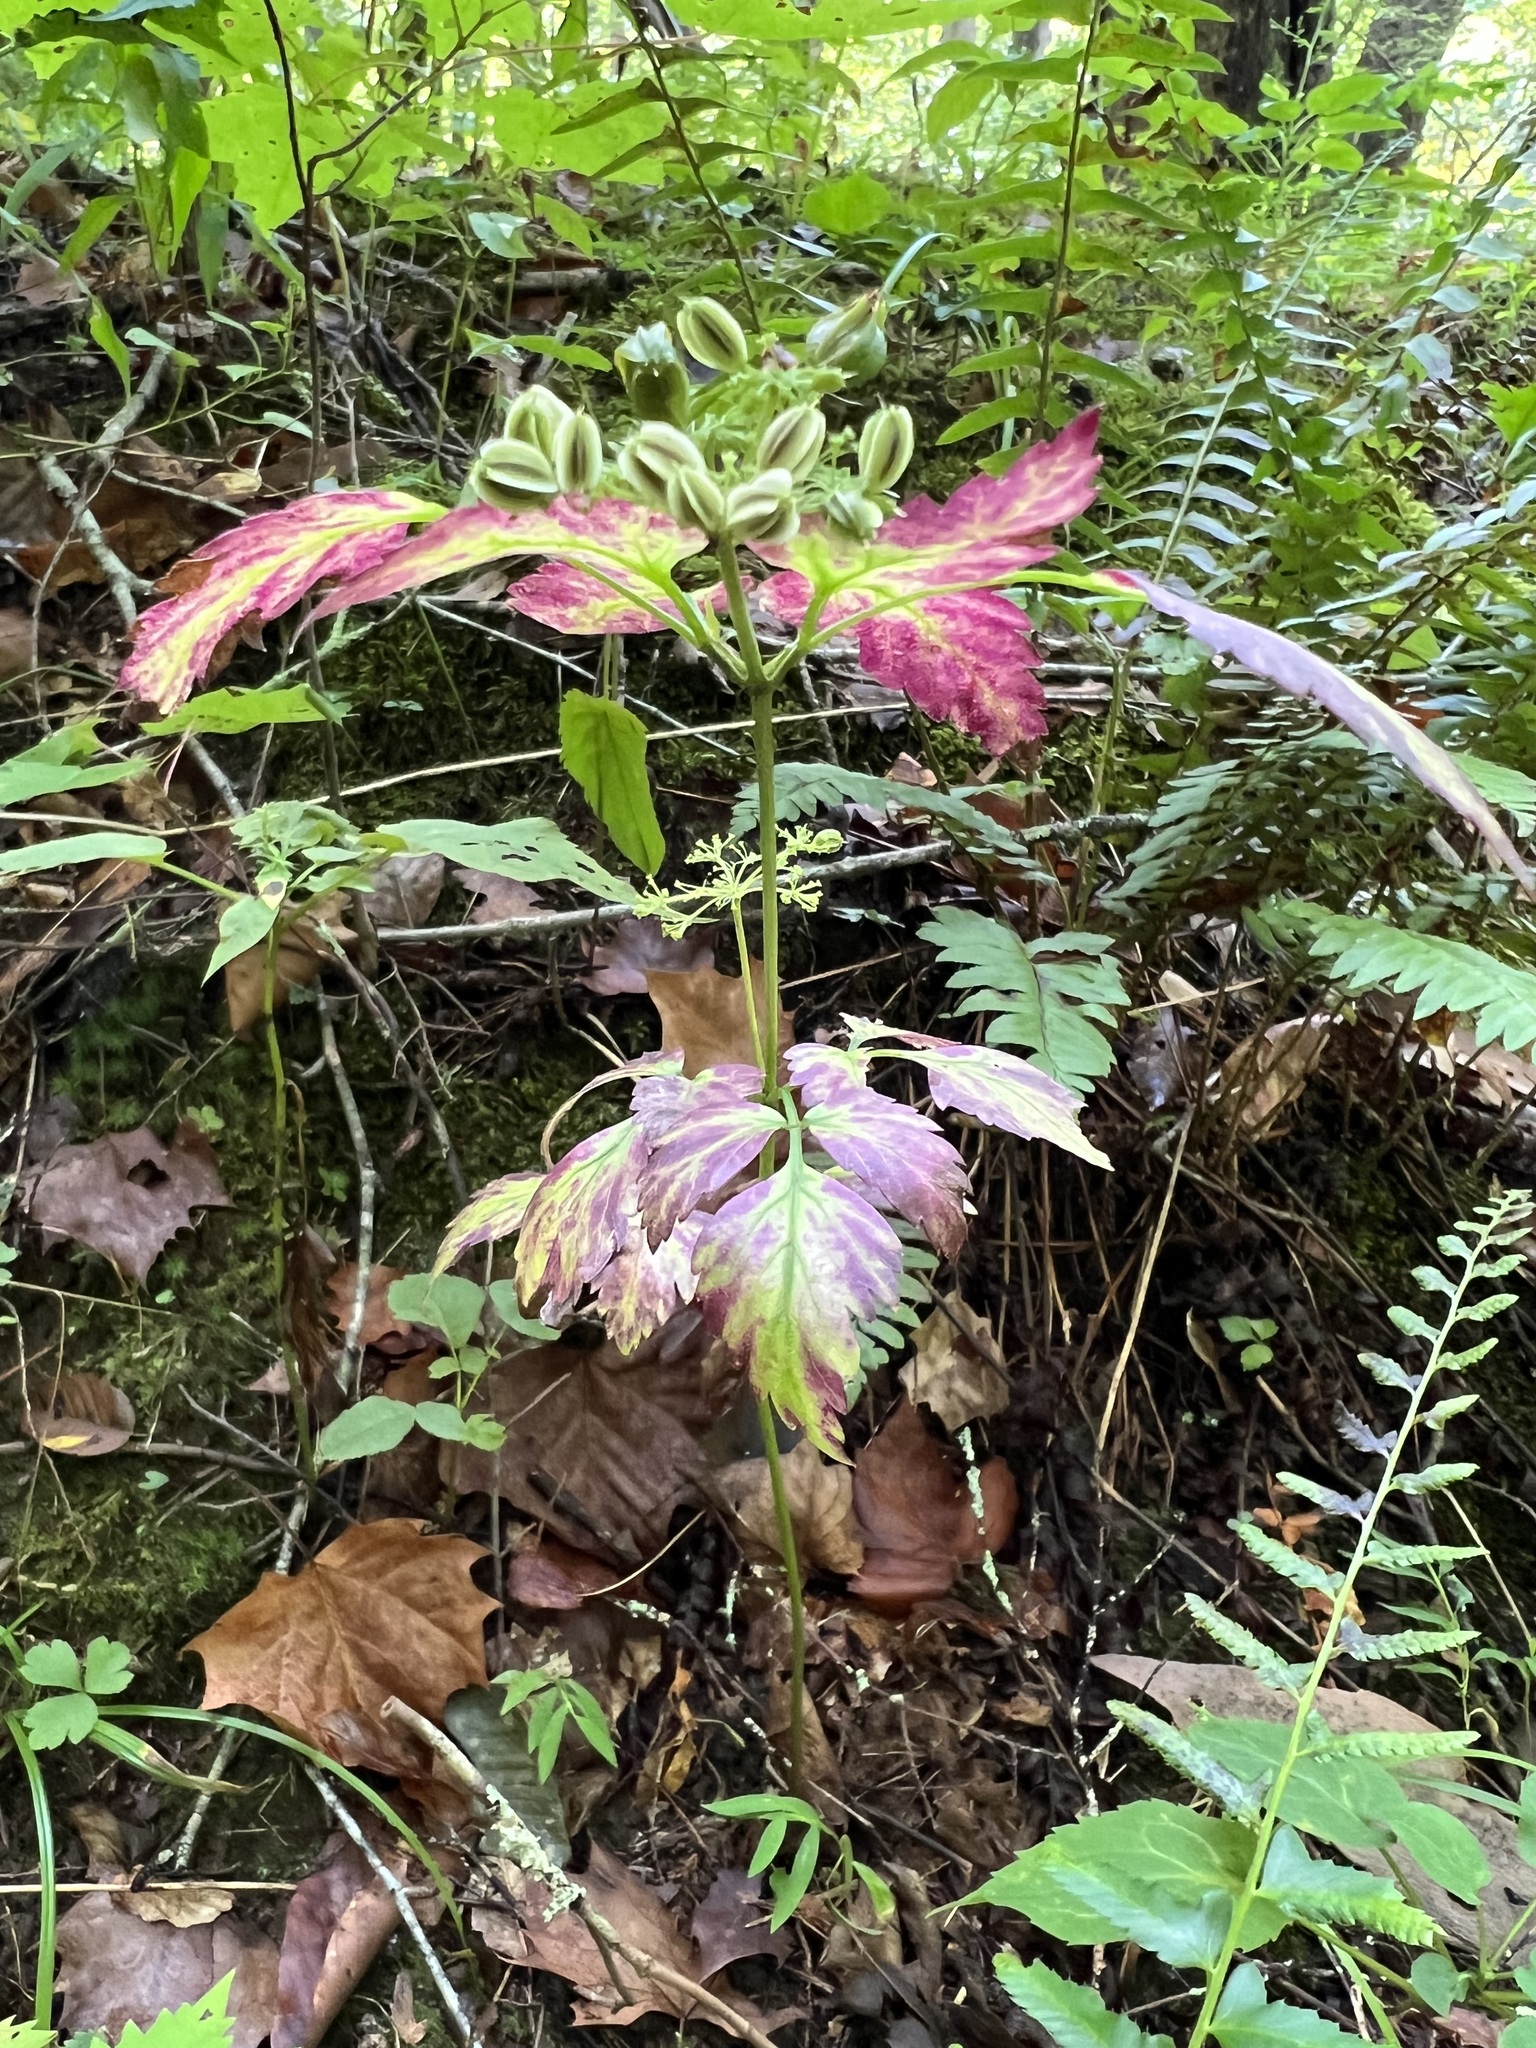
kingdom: Plantae
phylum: Tracheophyta
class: Magnoliopsida
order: Apiales
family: Apiaceae
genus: Osmorhiza
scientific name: Osmorhiza claytonii
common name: Hairy sweet cicely
